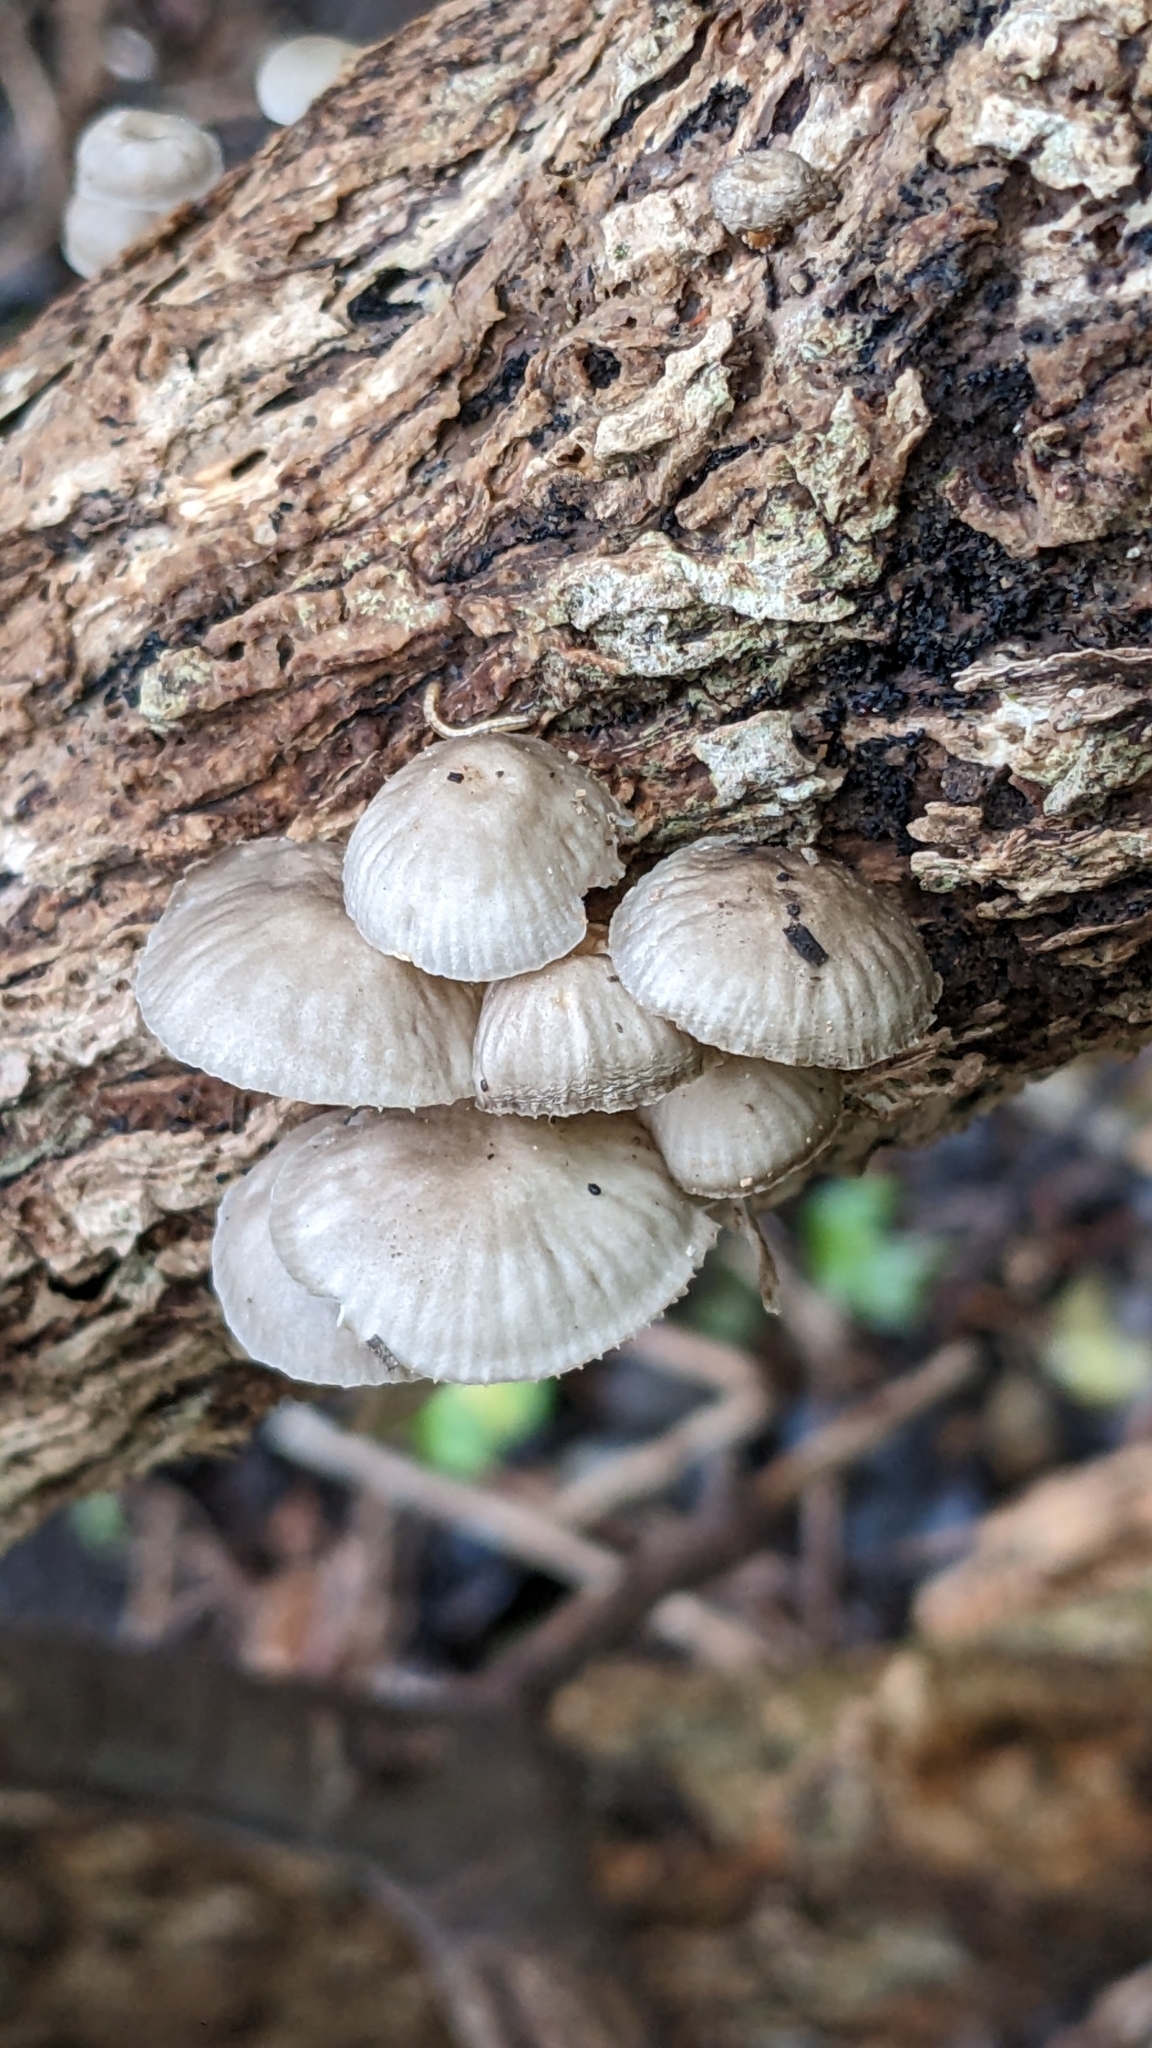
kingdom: Fungi
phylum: Basidiomycota
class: Agaricomycetes
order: Agaricales
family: Mycenaceae
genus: Roridomyces
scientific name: Roridomyces austrororidus
